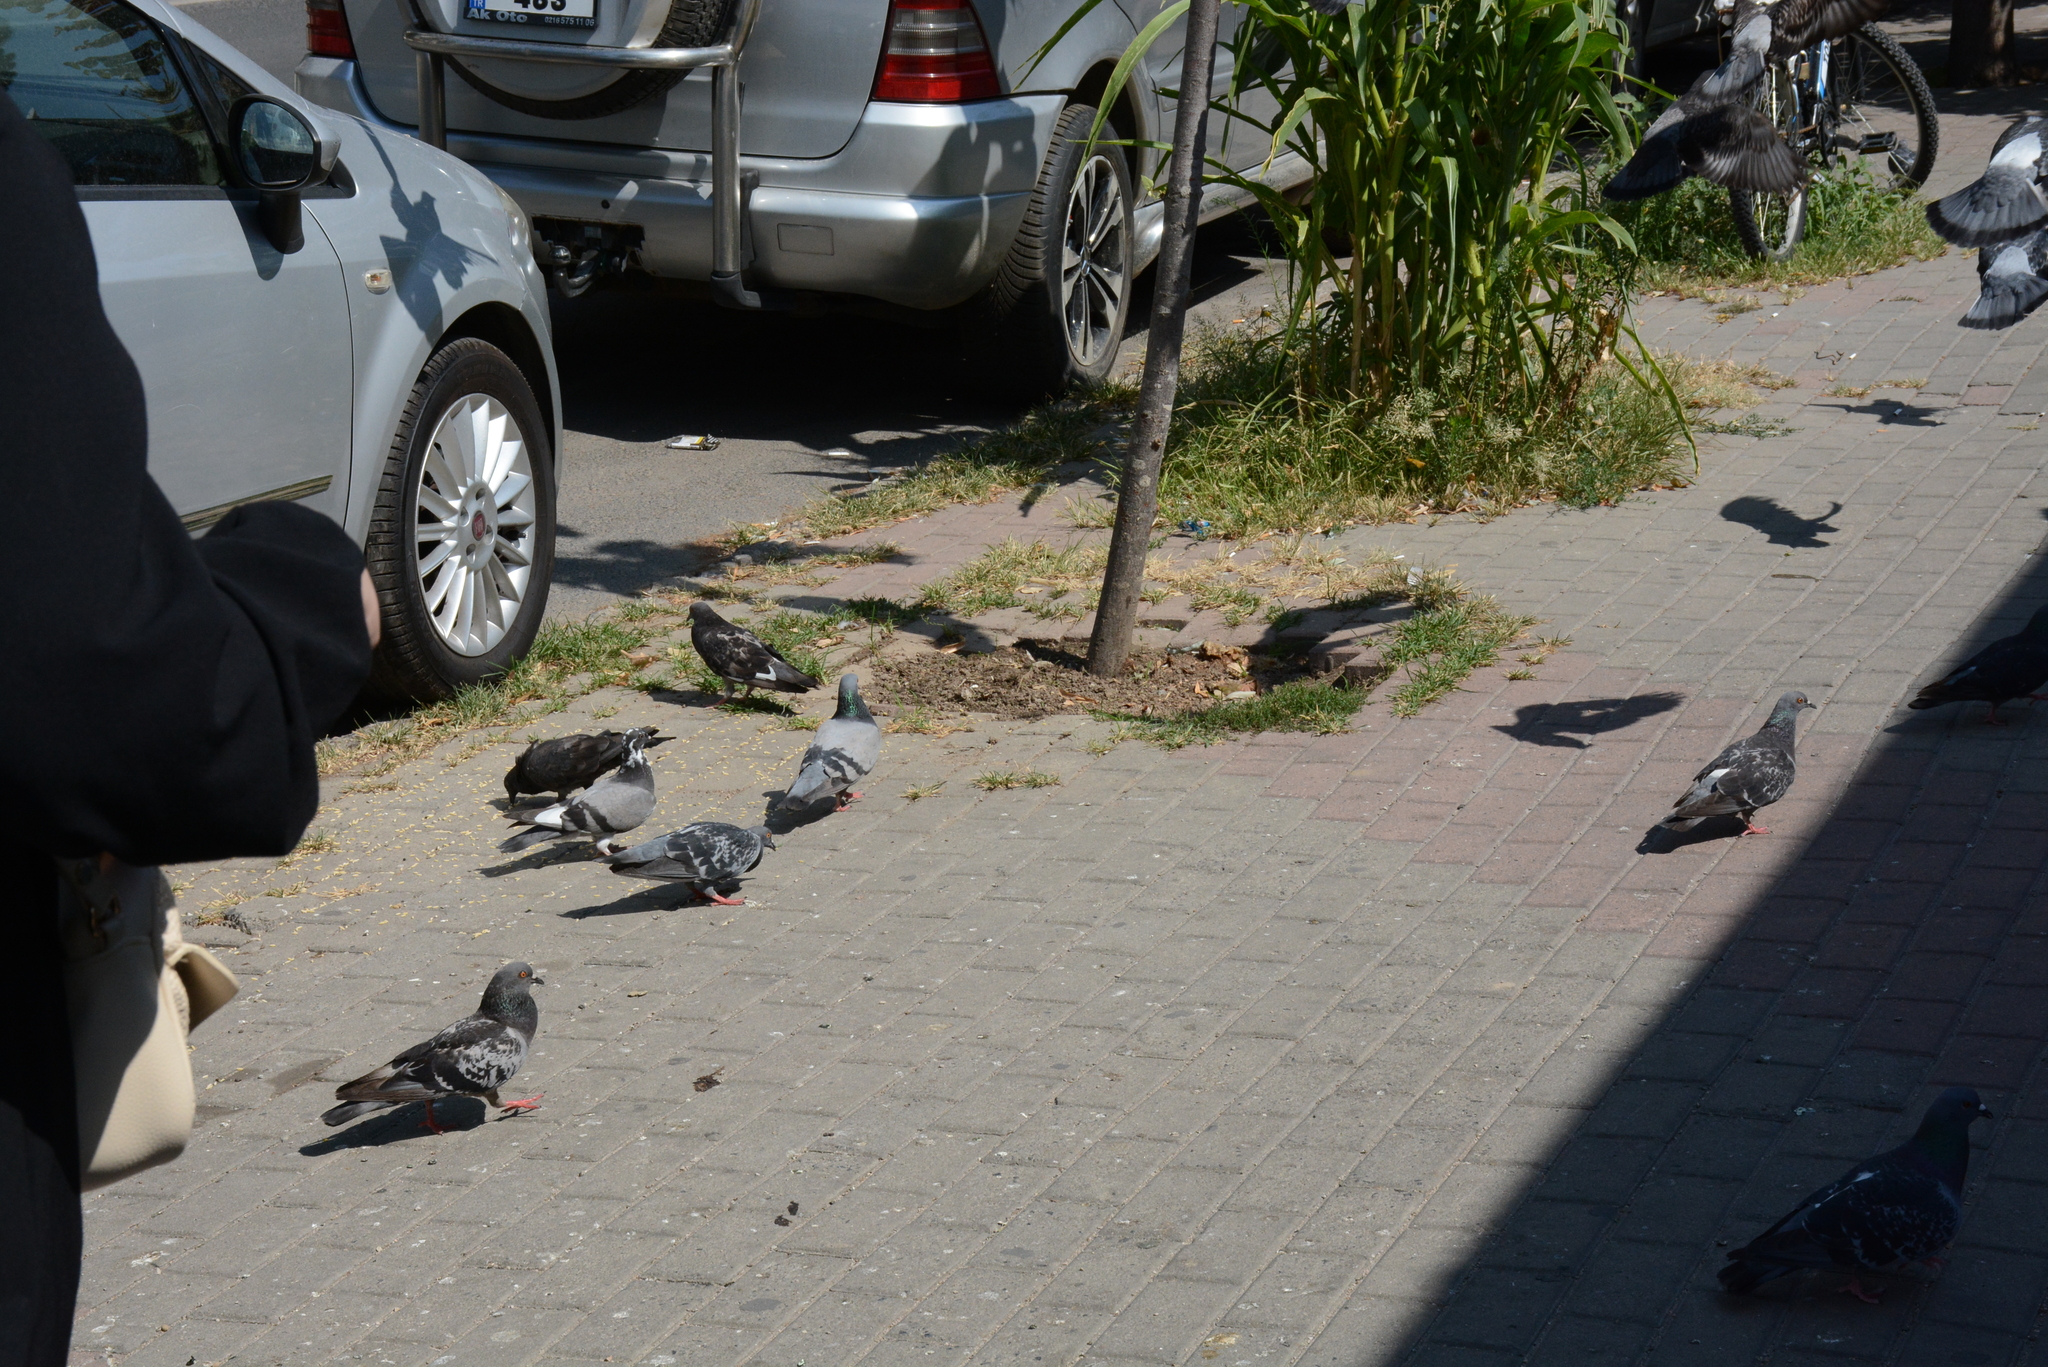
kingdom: Animalia
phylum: Chordata
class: Aves
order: Columbiformes
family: Columbidae
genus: Columba
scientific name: Columba livia
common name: Rock pigeon
